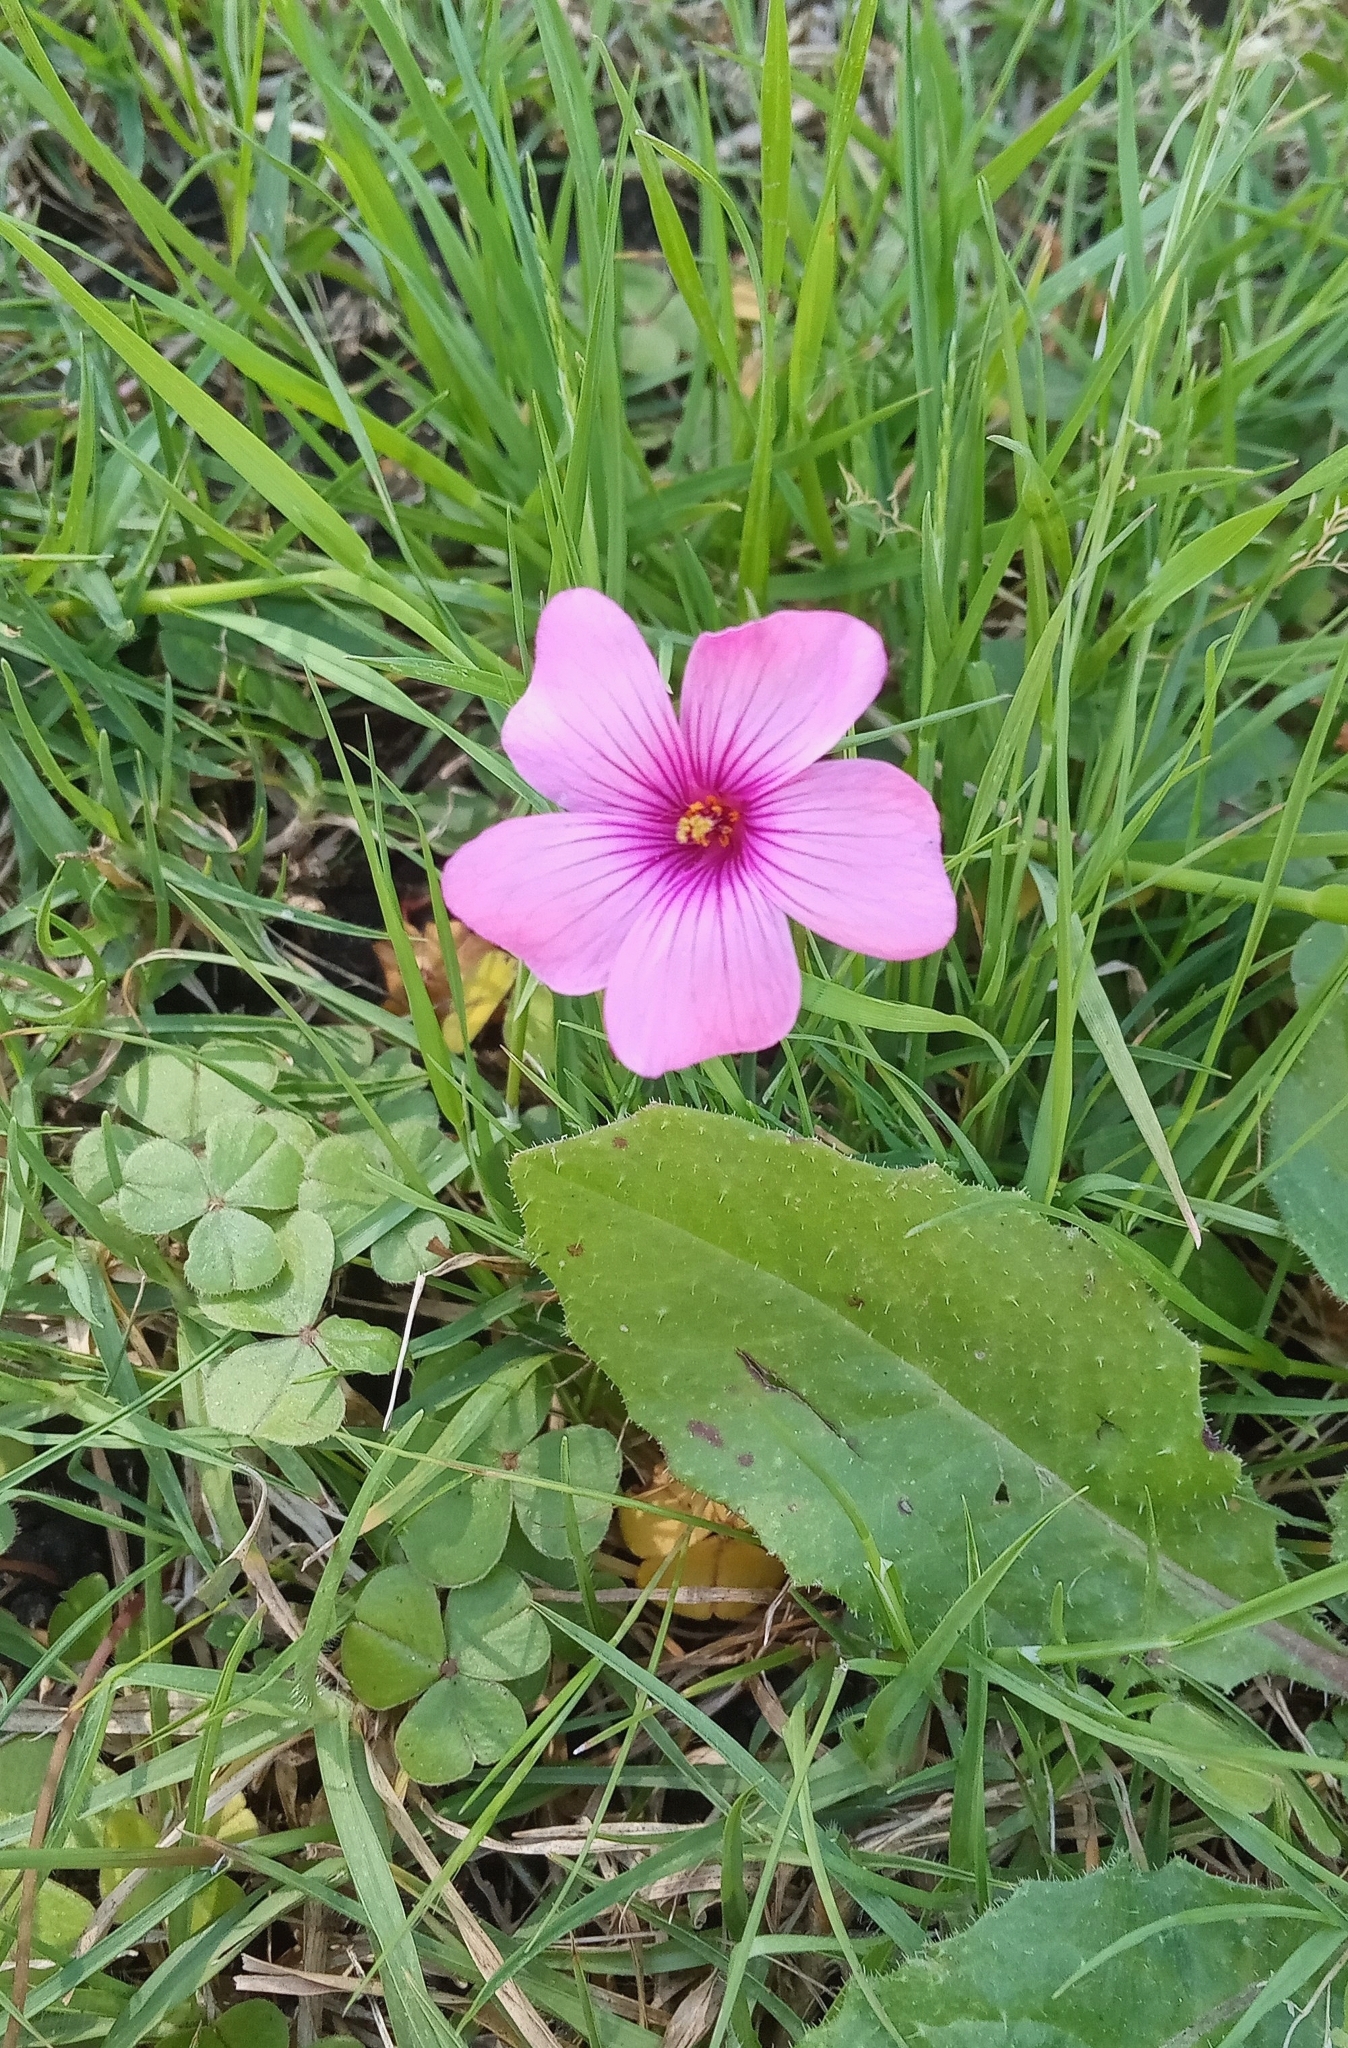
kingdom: Plantae
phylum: Tracheophyta
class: Magnoliopsida
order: Oxalidales
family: Oxalidaceae
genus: Oxalis
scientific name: Oxalis articulata
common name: Pink-sorrel
